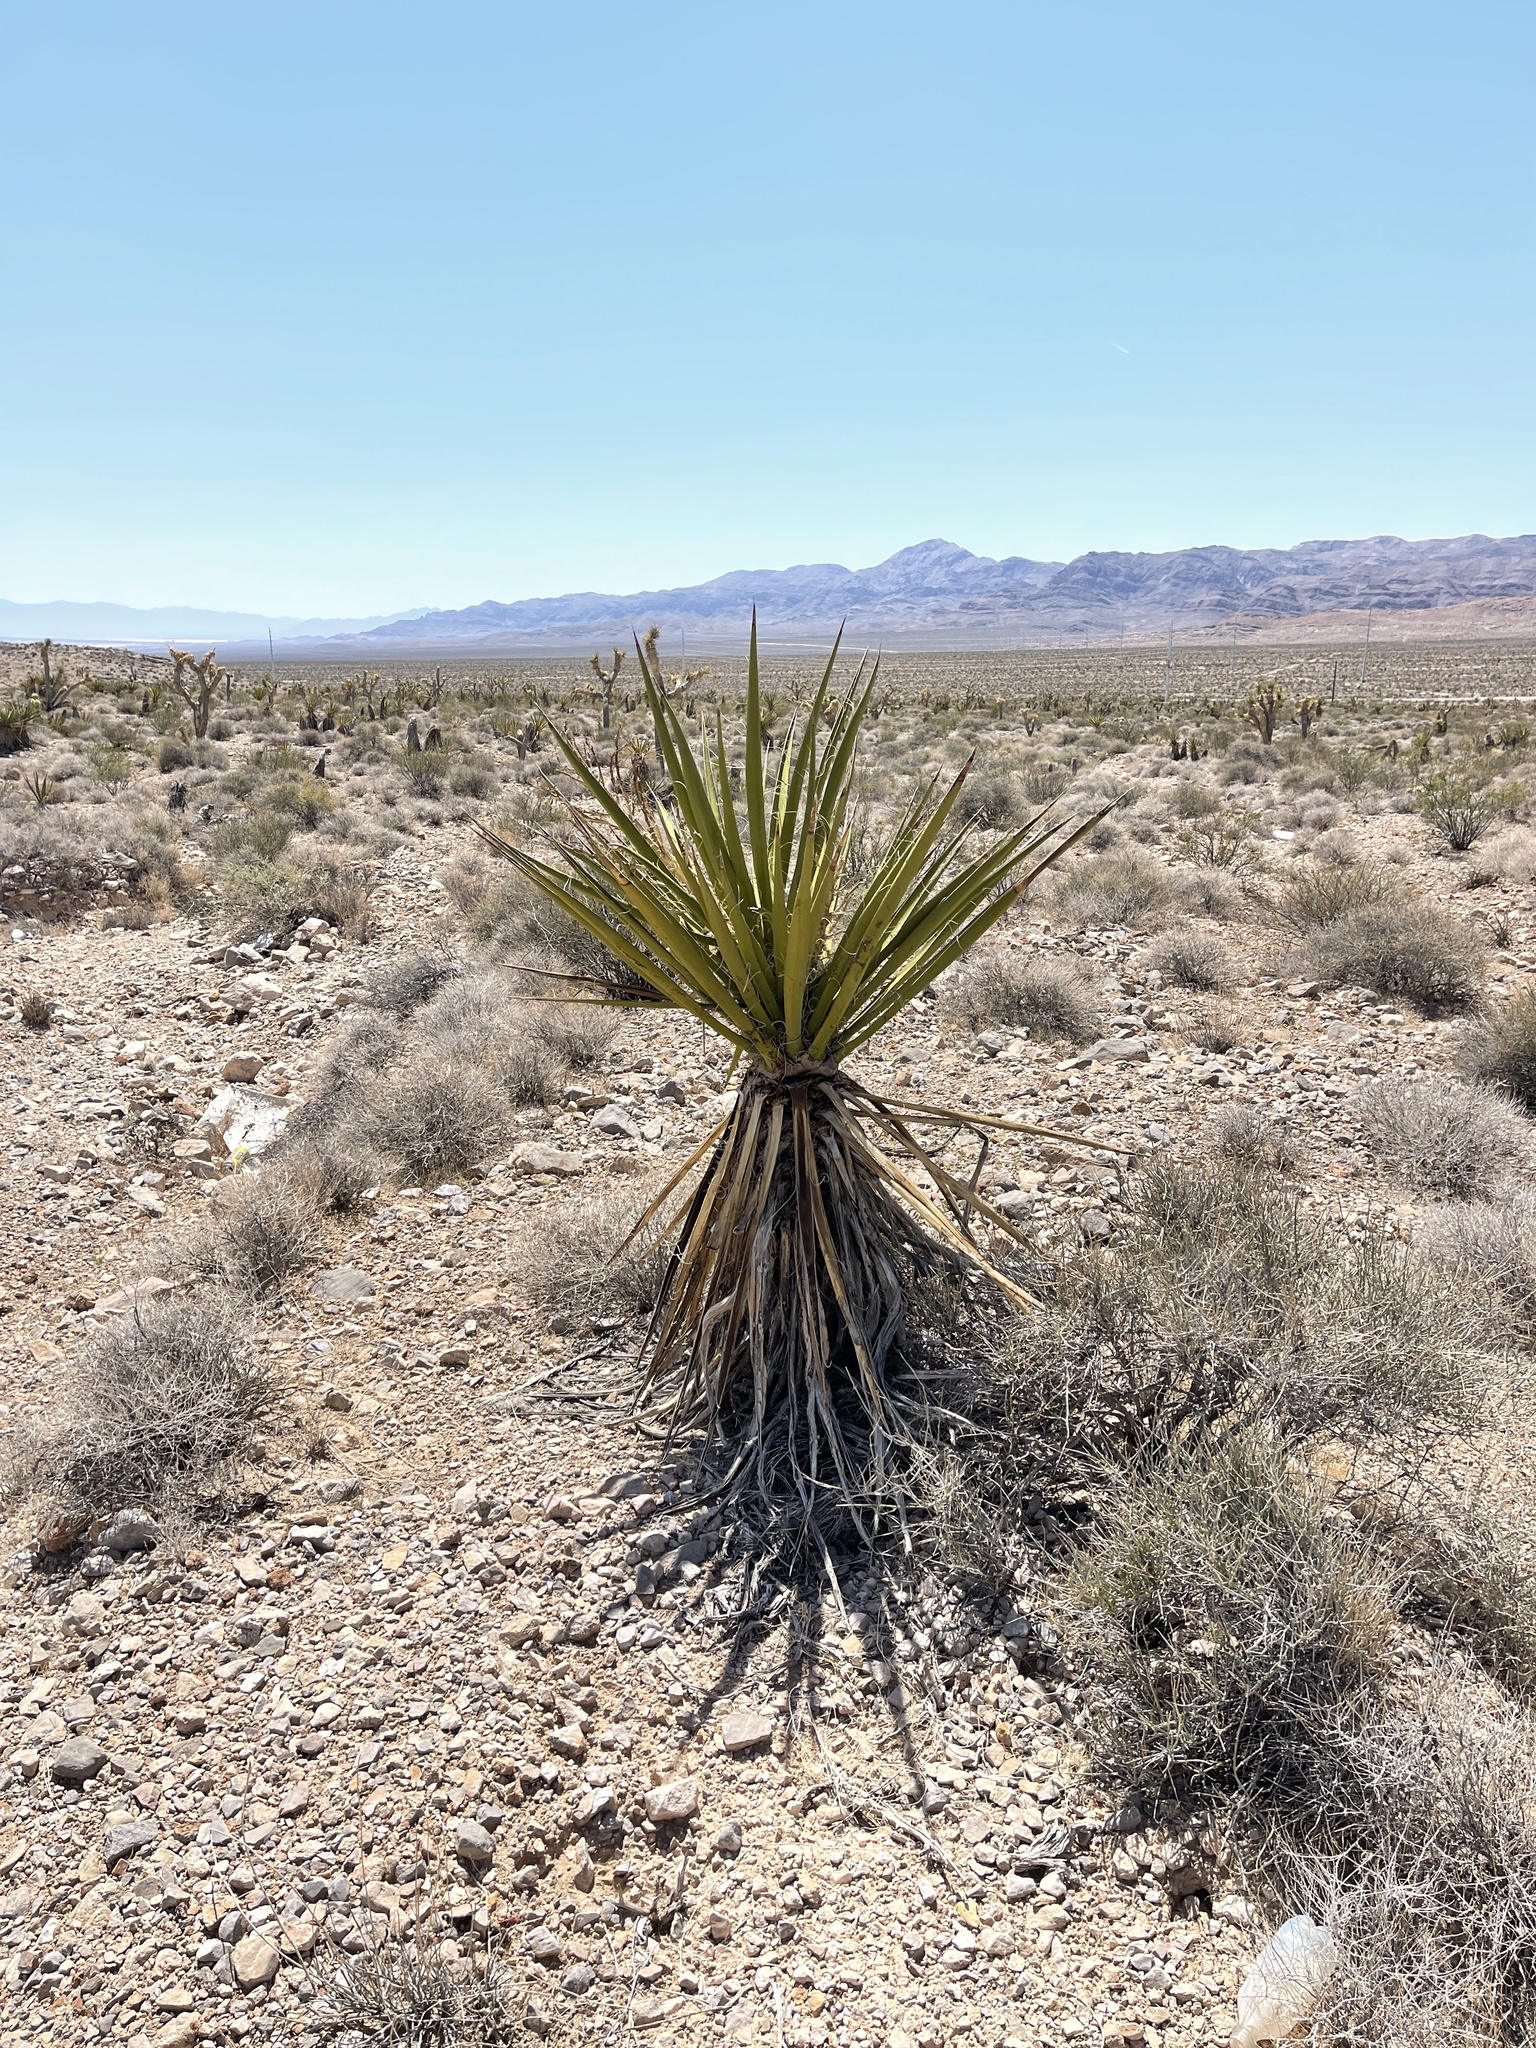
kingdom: Plantae
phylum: Tracheophyta
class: Liliopsida
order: Asparagales
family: Asparagaceae
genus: Yucca
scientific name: Yucca schidigera
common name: Mojave yucca
